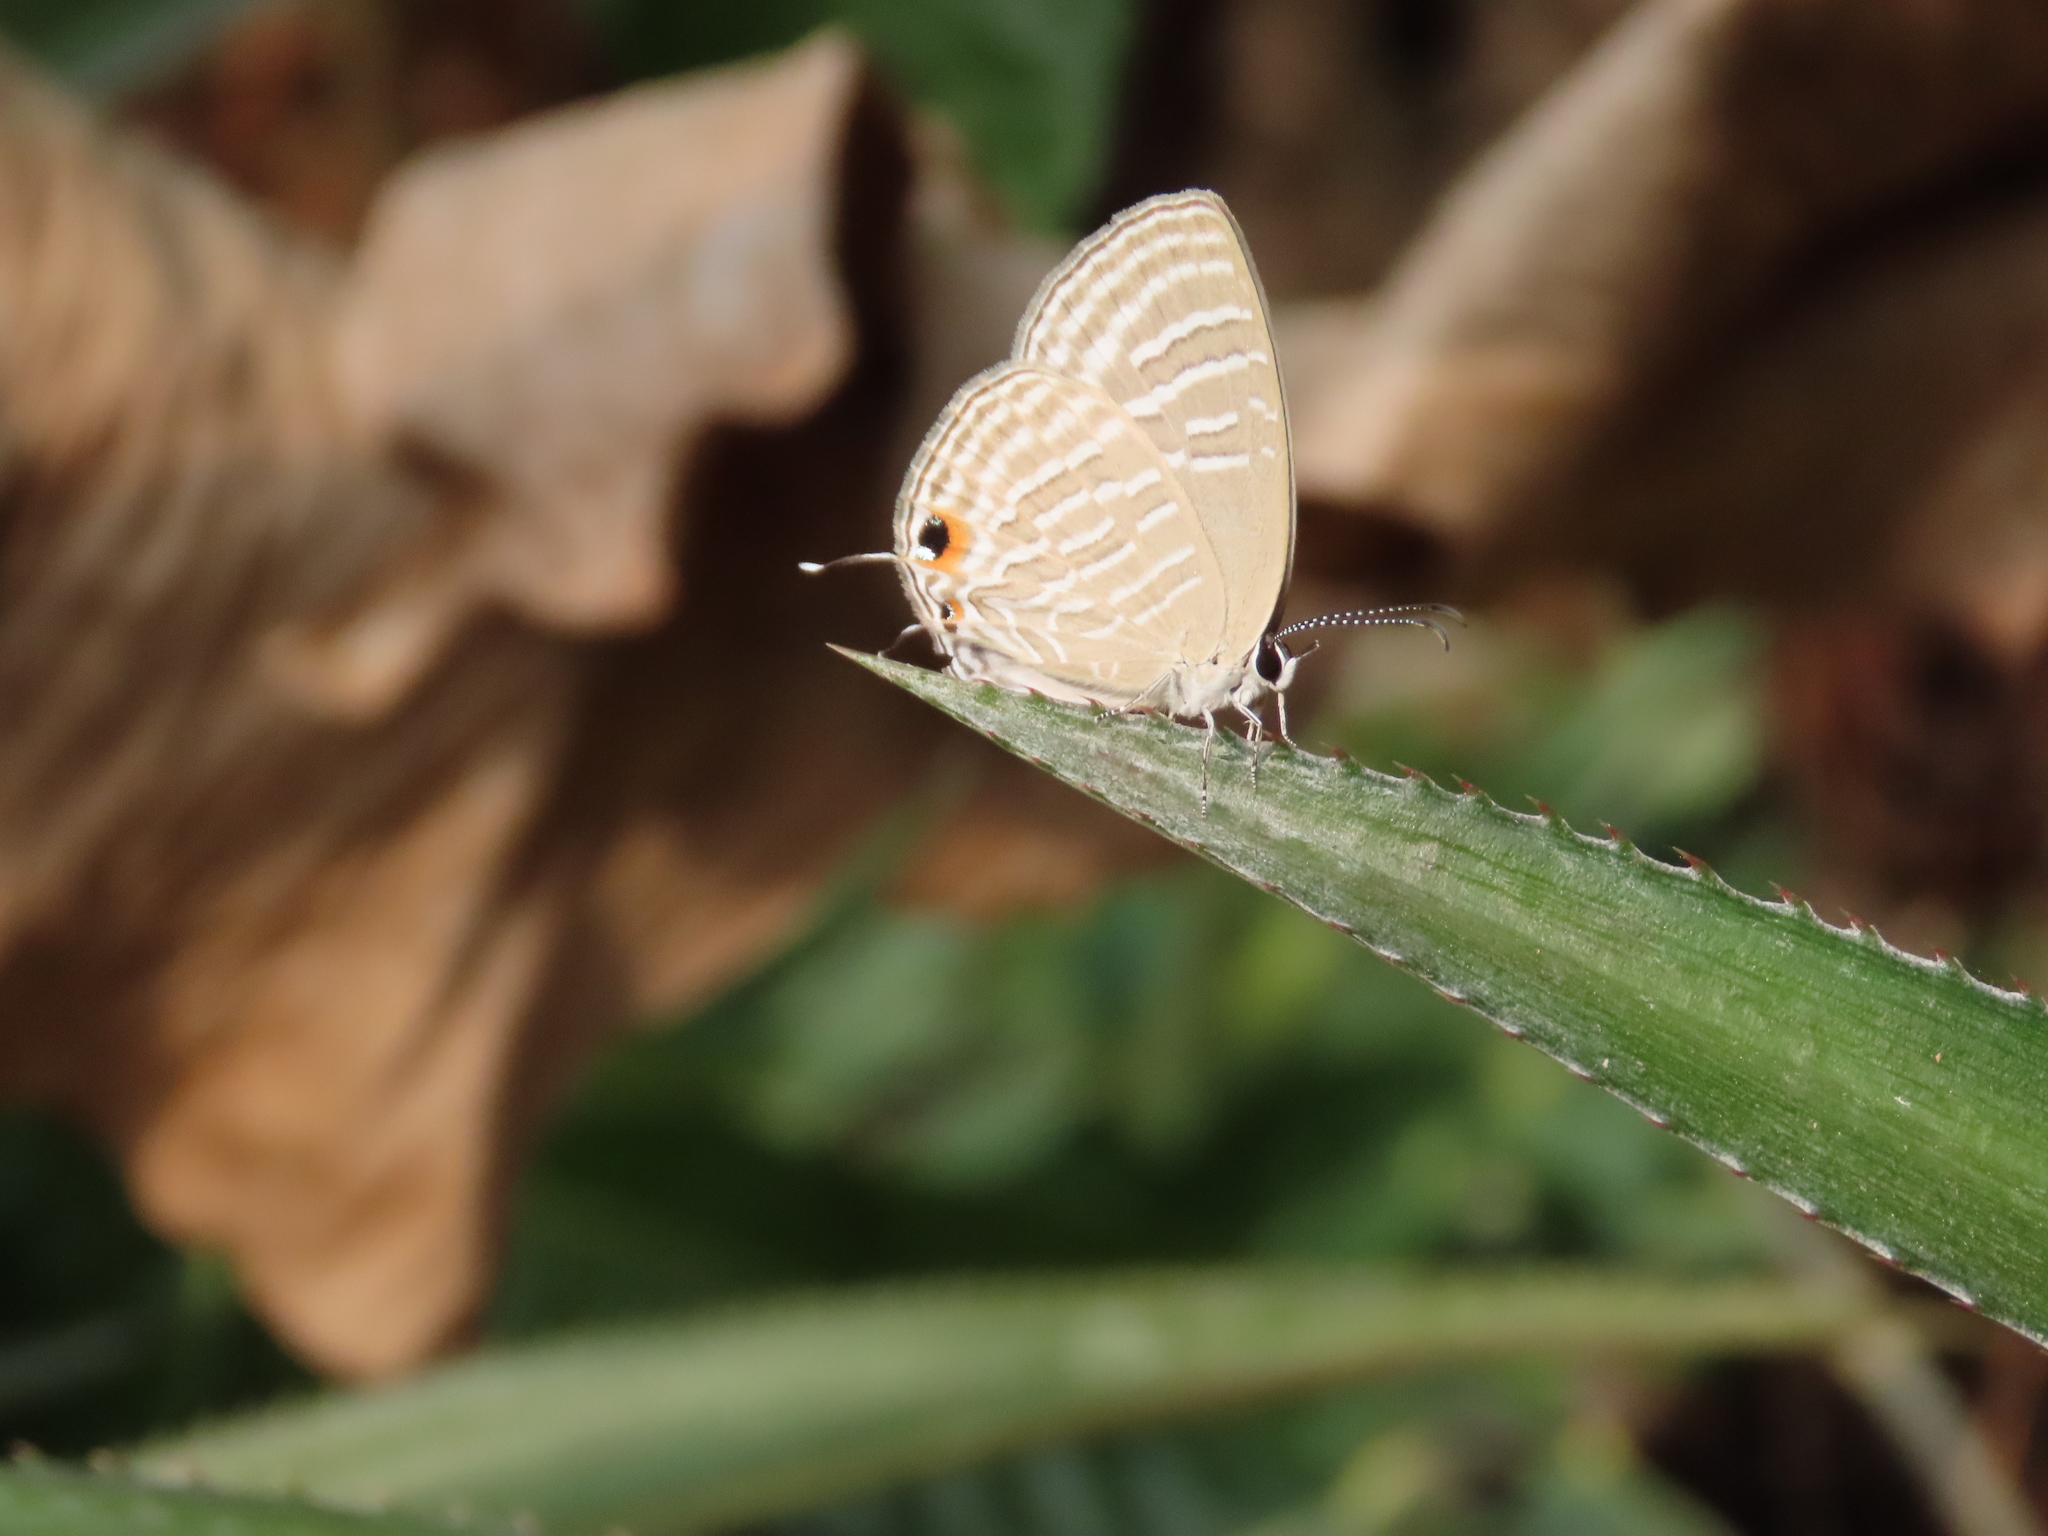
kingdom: Animalia
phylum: Arthropoda
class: Insecta
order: Lepidoptera
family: Lycaenidae
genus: Jamides
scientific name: Jamides celeno
